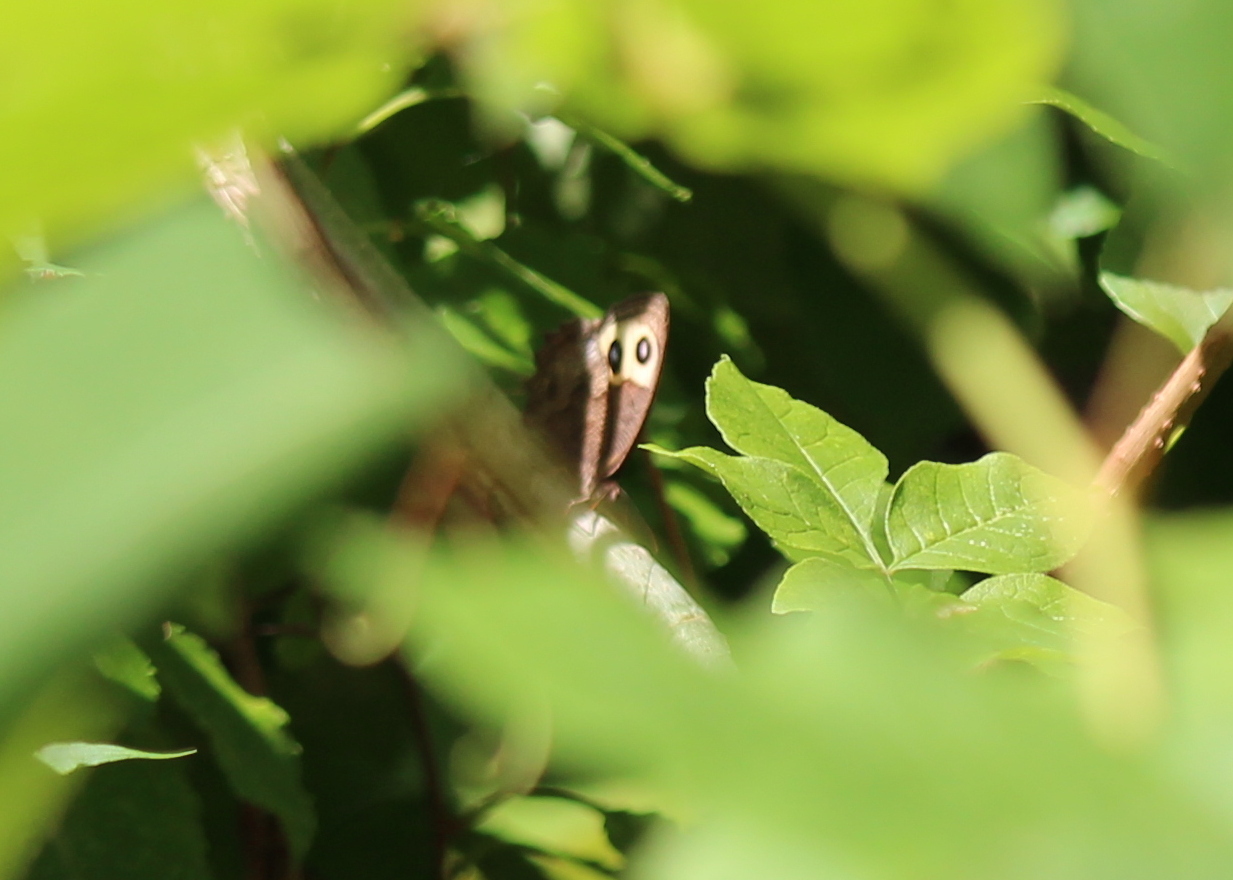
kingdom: Animalia
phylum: Arthropoda
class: Insecta
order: Lepidoptera
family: Nymphalidae
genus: Cercyonis
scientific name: Cercyonis pegala
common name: Common wood-nymph
